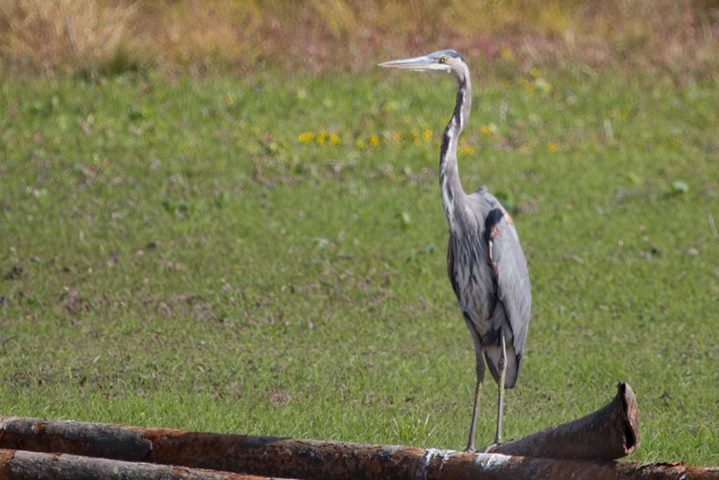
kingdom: Animalia
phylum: Chordata
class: Aves
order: Pelecaniformes
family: Ardeidae
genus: Ardea
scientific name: Ardea herodias
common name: Great blue heron
